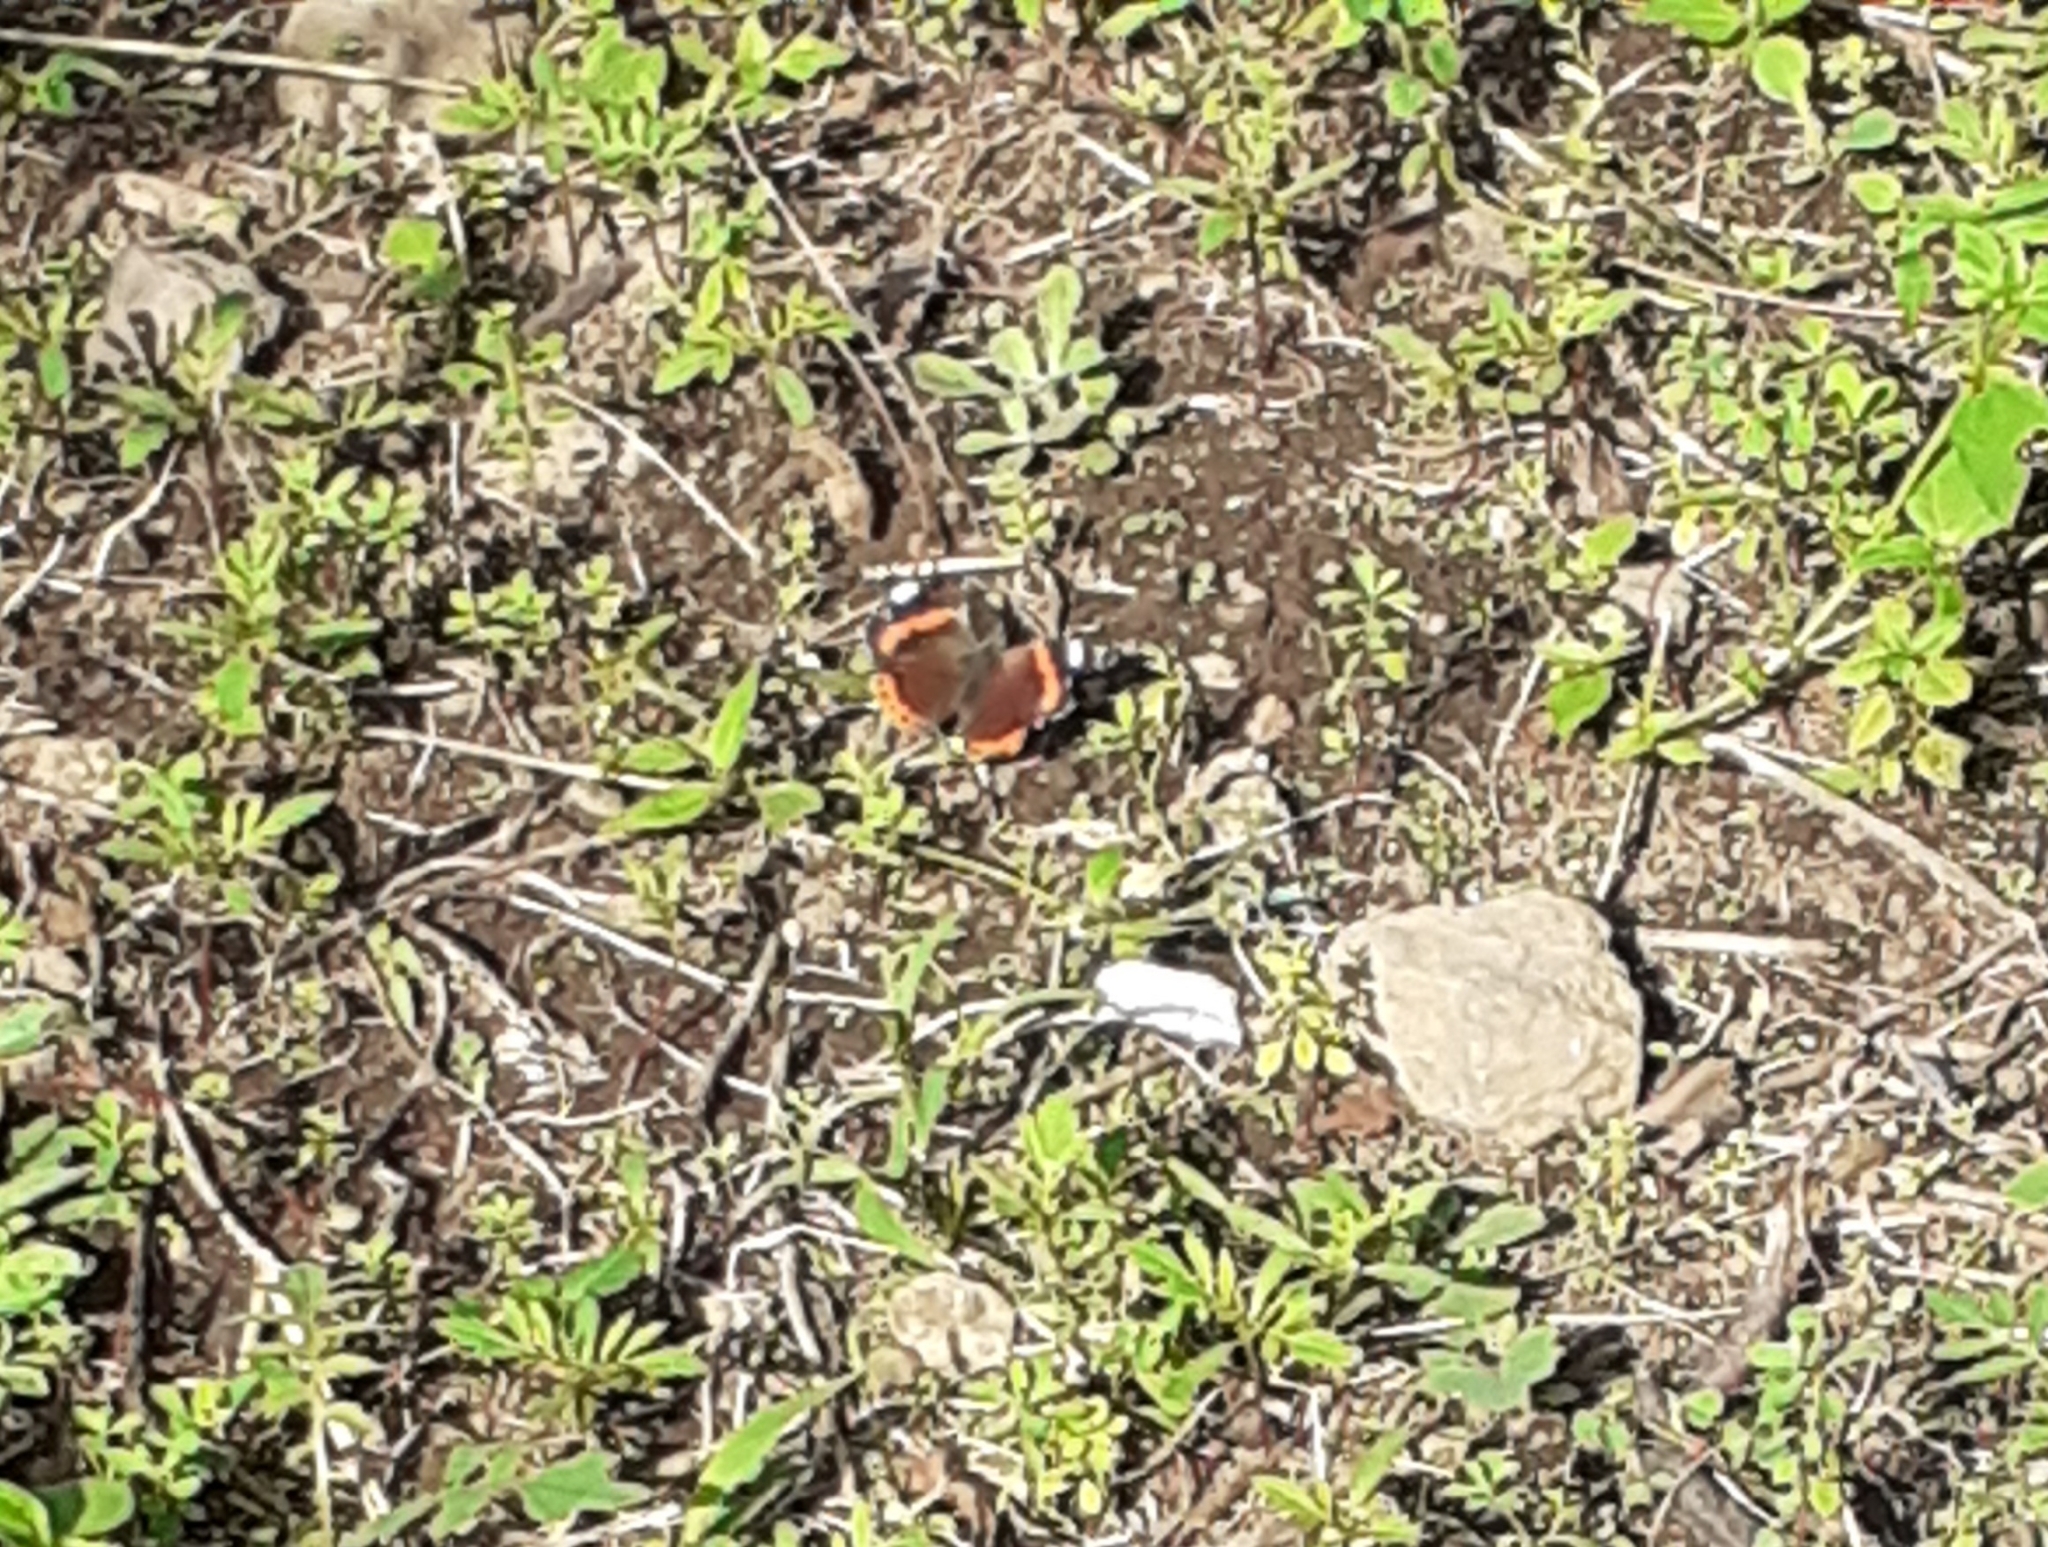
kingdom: Animalia
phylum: Arthropoda
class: Insecta
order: Lepidoptera
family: Nymphalidae
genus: Vanessa
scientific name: Vanessa atalanta
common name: Red admiral
